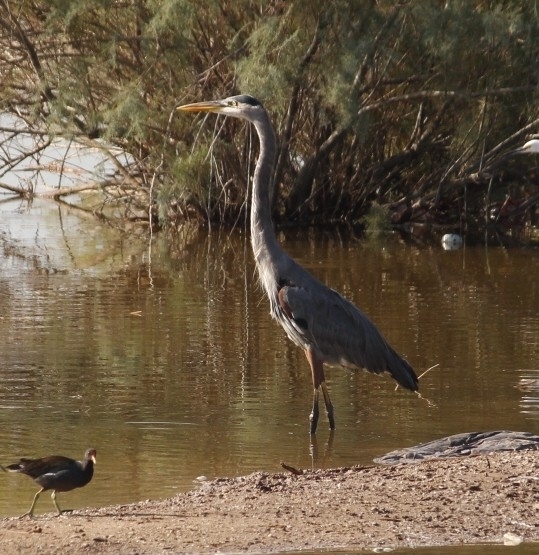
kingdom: Animalia
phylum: Chordata
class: Aves
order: Pelecaniformes
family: Ardeidae
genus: Ardea
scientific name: Ardea herodias
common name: Great blue heron
